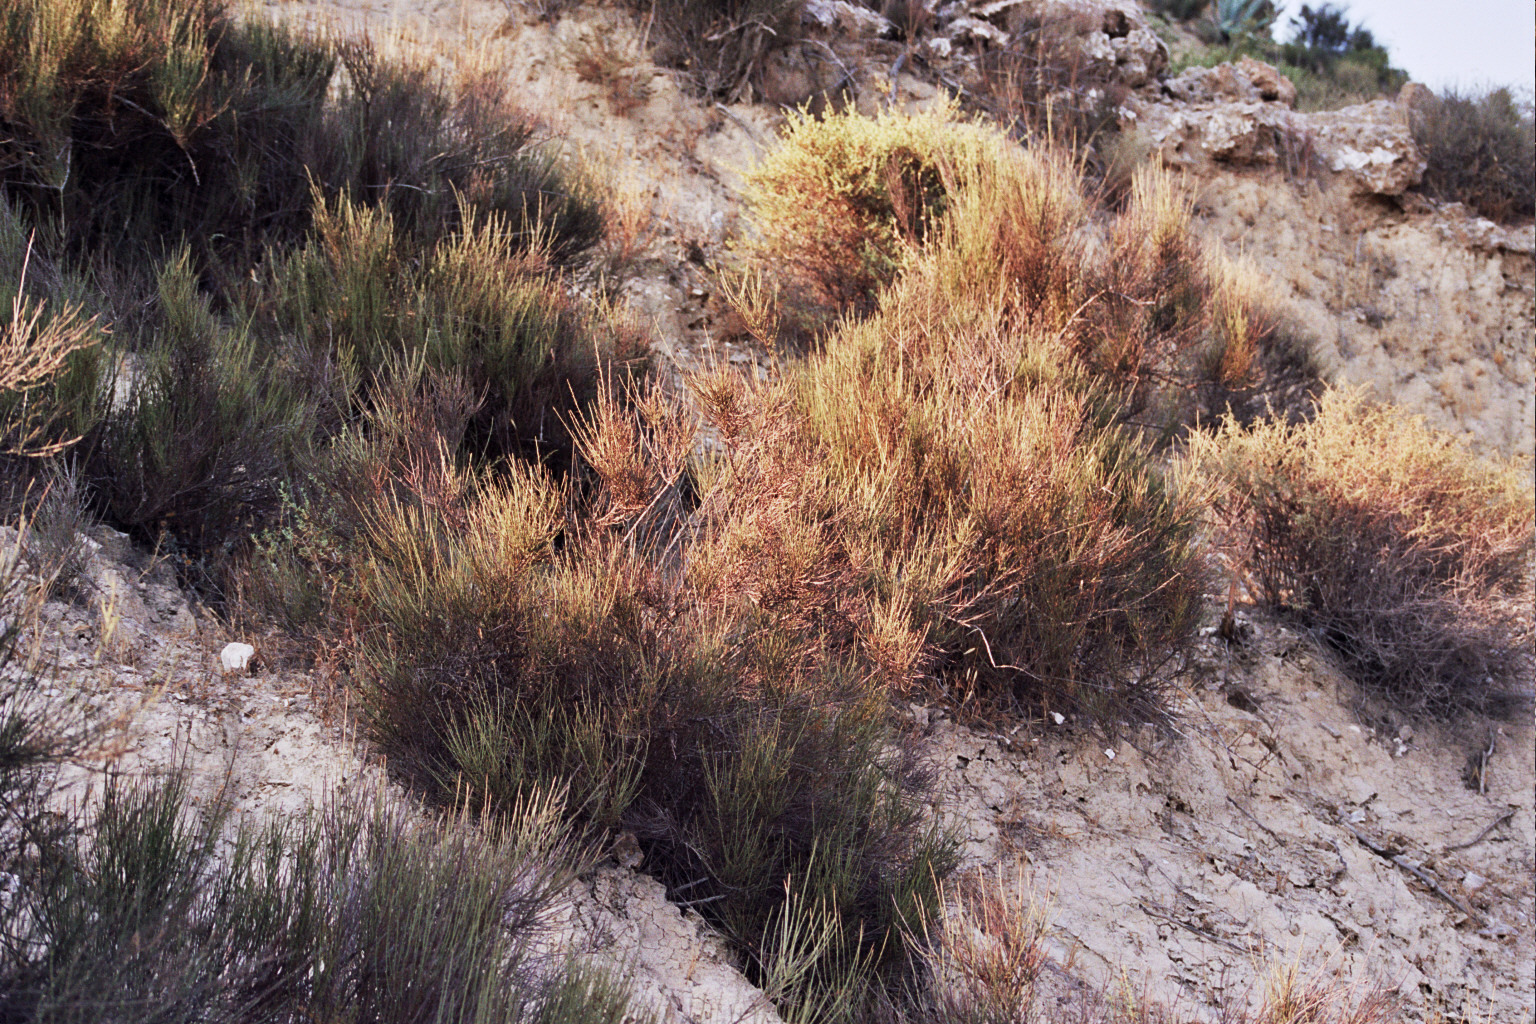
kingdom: Plantae
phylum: Tracheophyta
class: Magnoliopsida
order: Caryophyllales
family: Amaranthaceae
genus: Caroxylon
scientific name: Caroxylon genistoides
